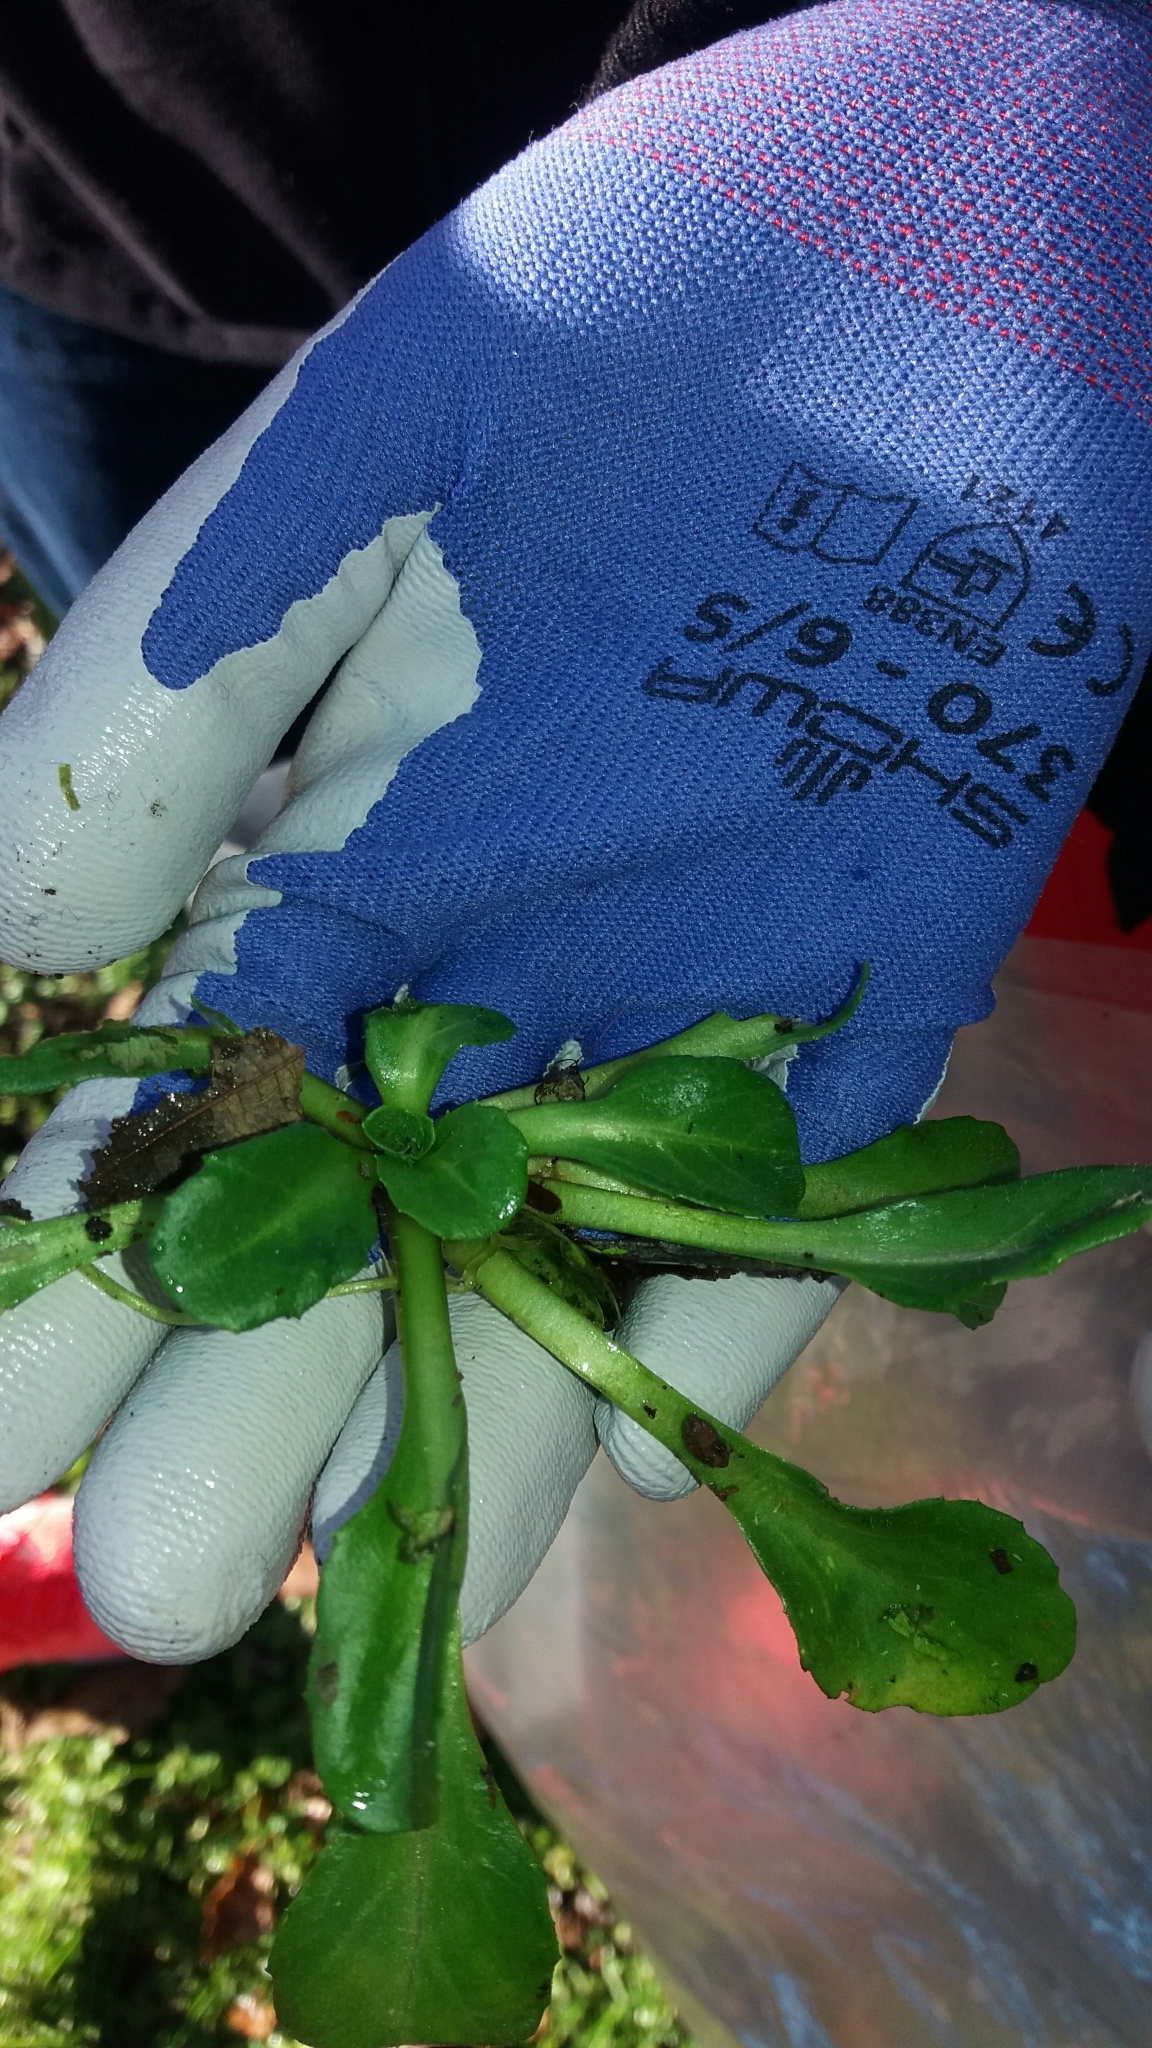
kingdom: Plantae
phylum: Tracheophyta
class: Magnoliopsida
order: Asterales
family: Asteraceae
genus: Bellis
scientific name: Bellis perennis
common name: Lawndaisy
